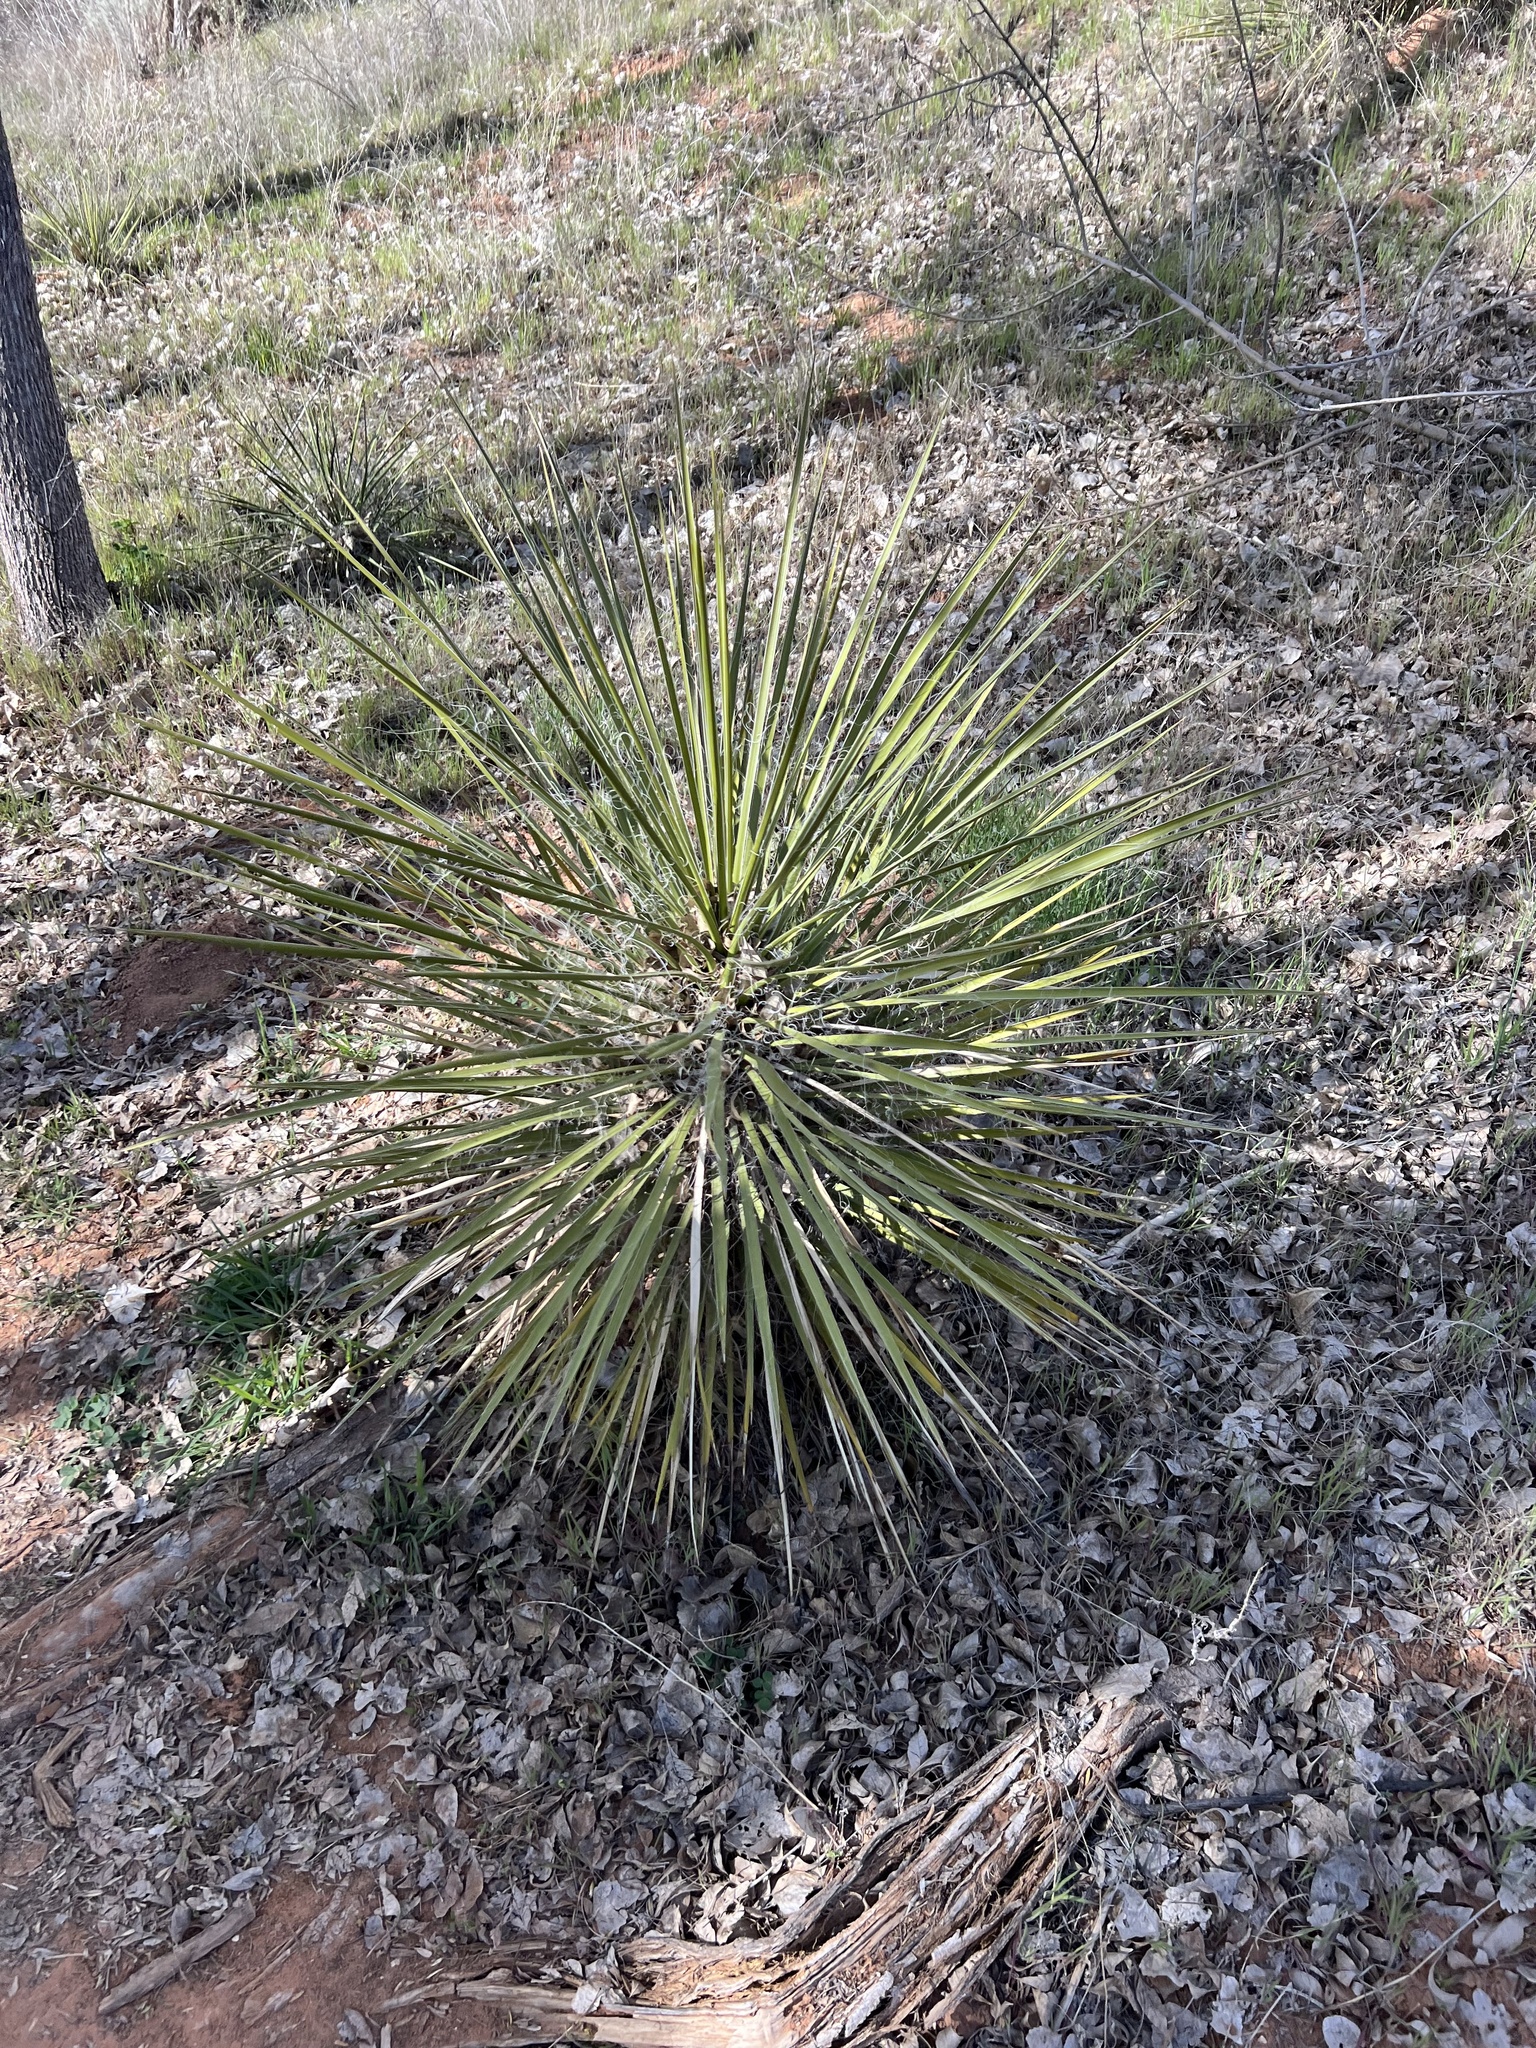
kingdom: Plantae
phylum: Tracheophyta
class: Liliopsida
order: Asparagales
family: Asparagaceae
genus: Yucca
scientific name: Yucca utahensis
